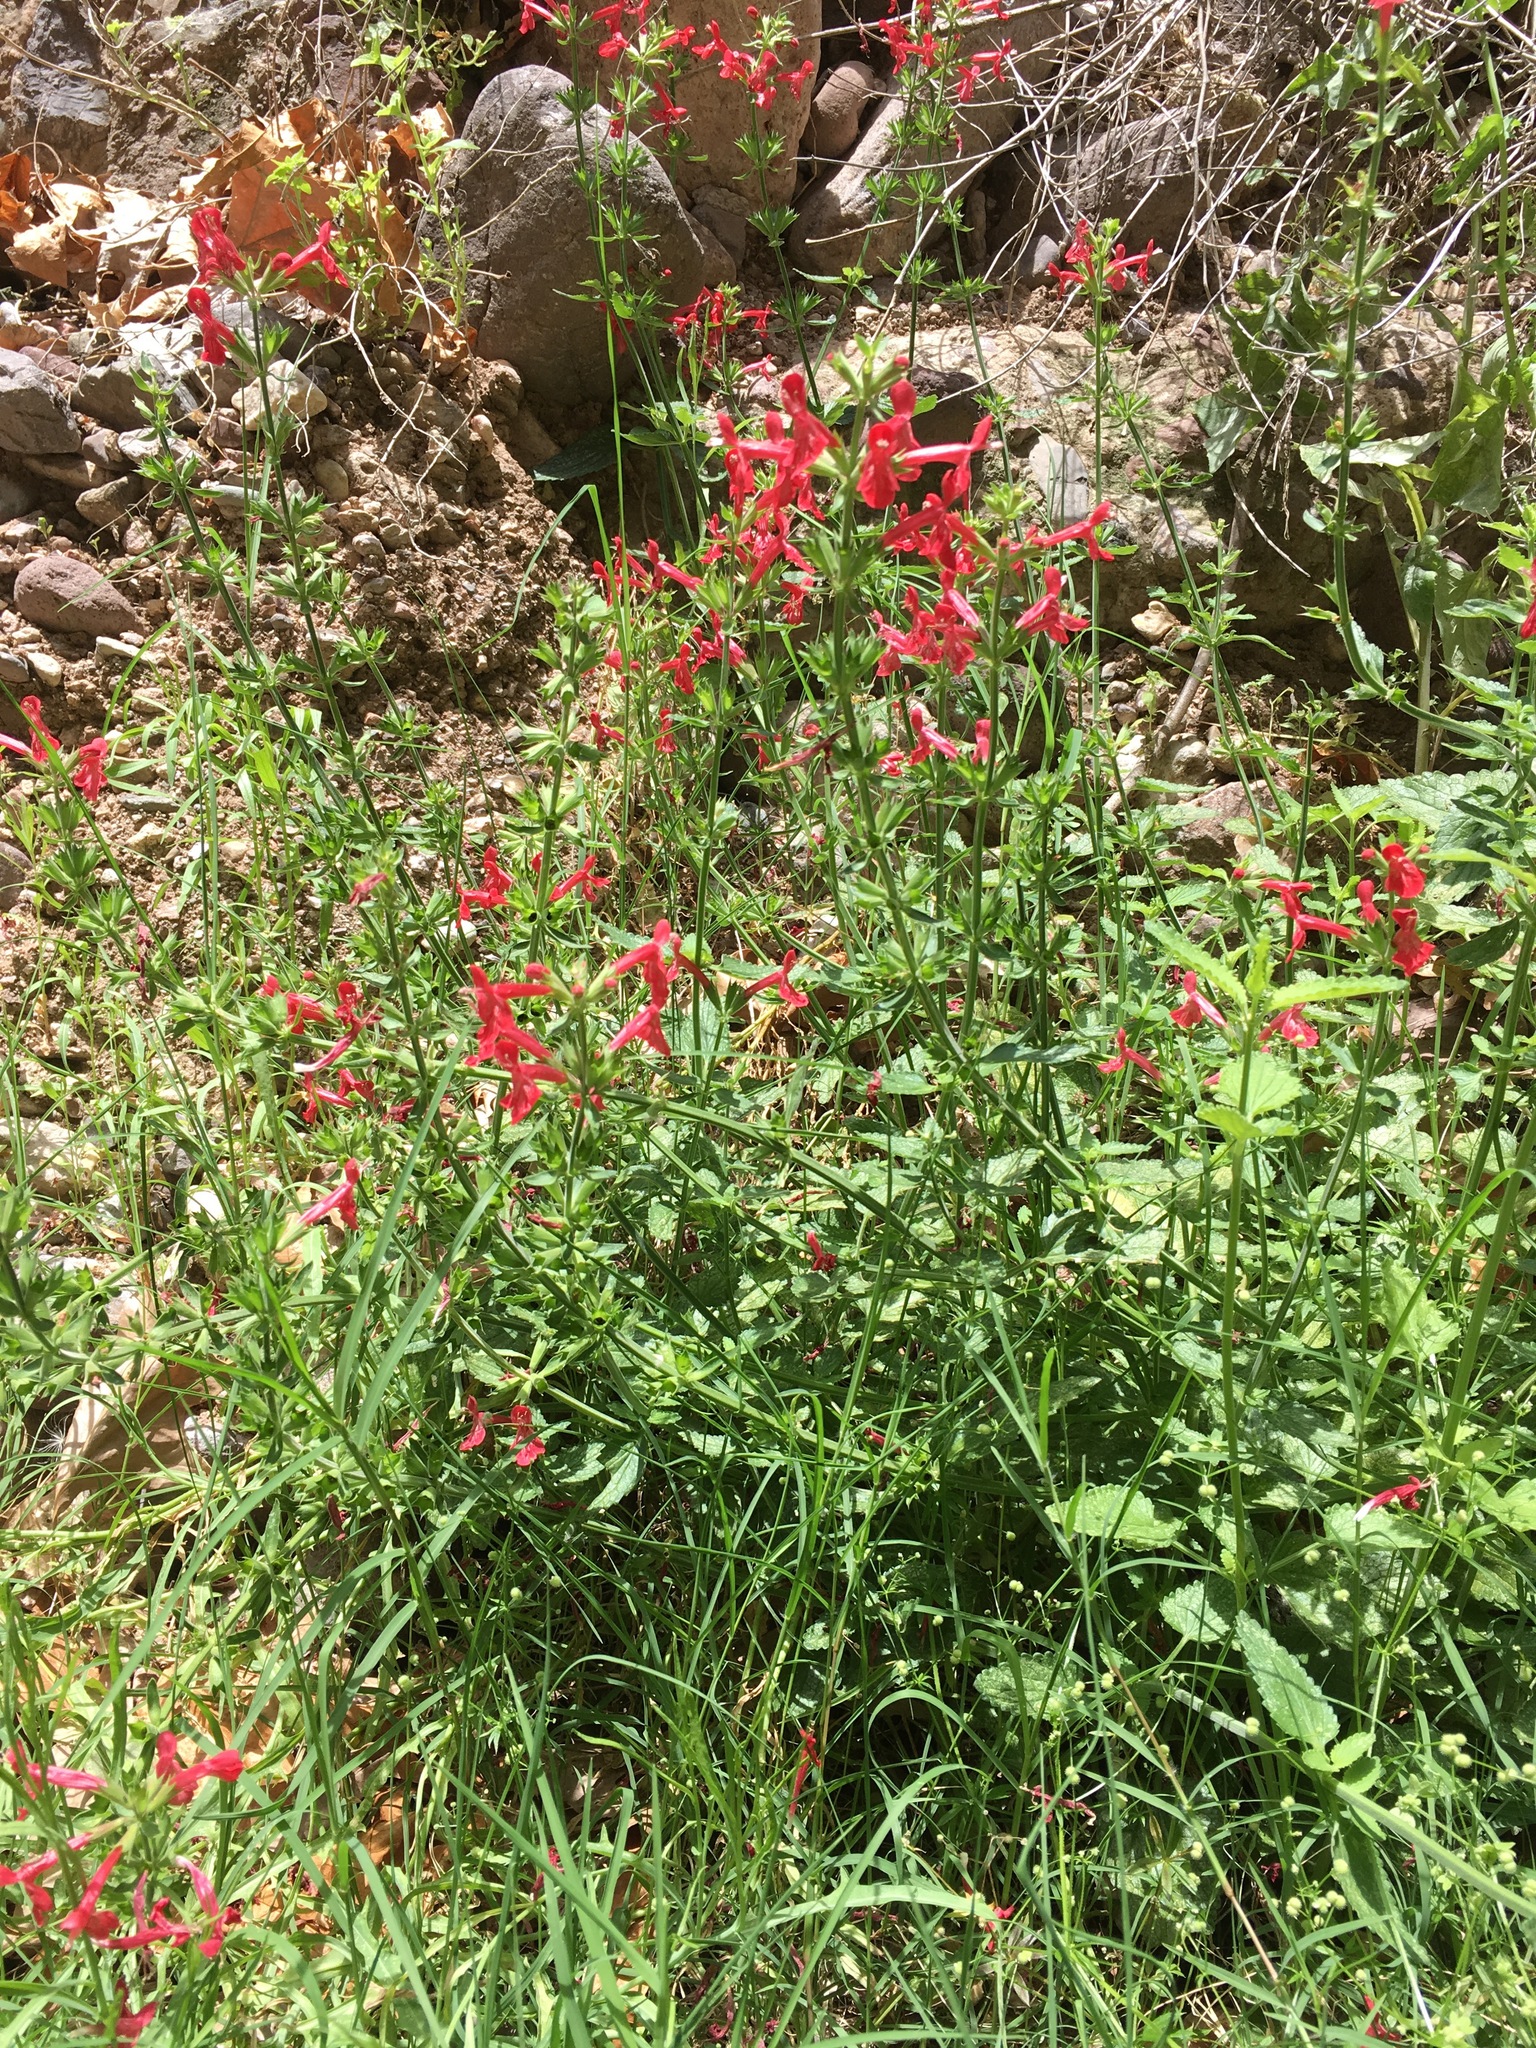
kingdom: Plantae
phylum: Tracheophyta
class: Magnoliopsida
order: Lamiales
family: Lamiaceae
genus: Stachys
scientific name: Stachys coccinea
